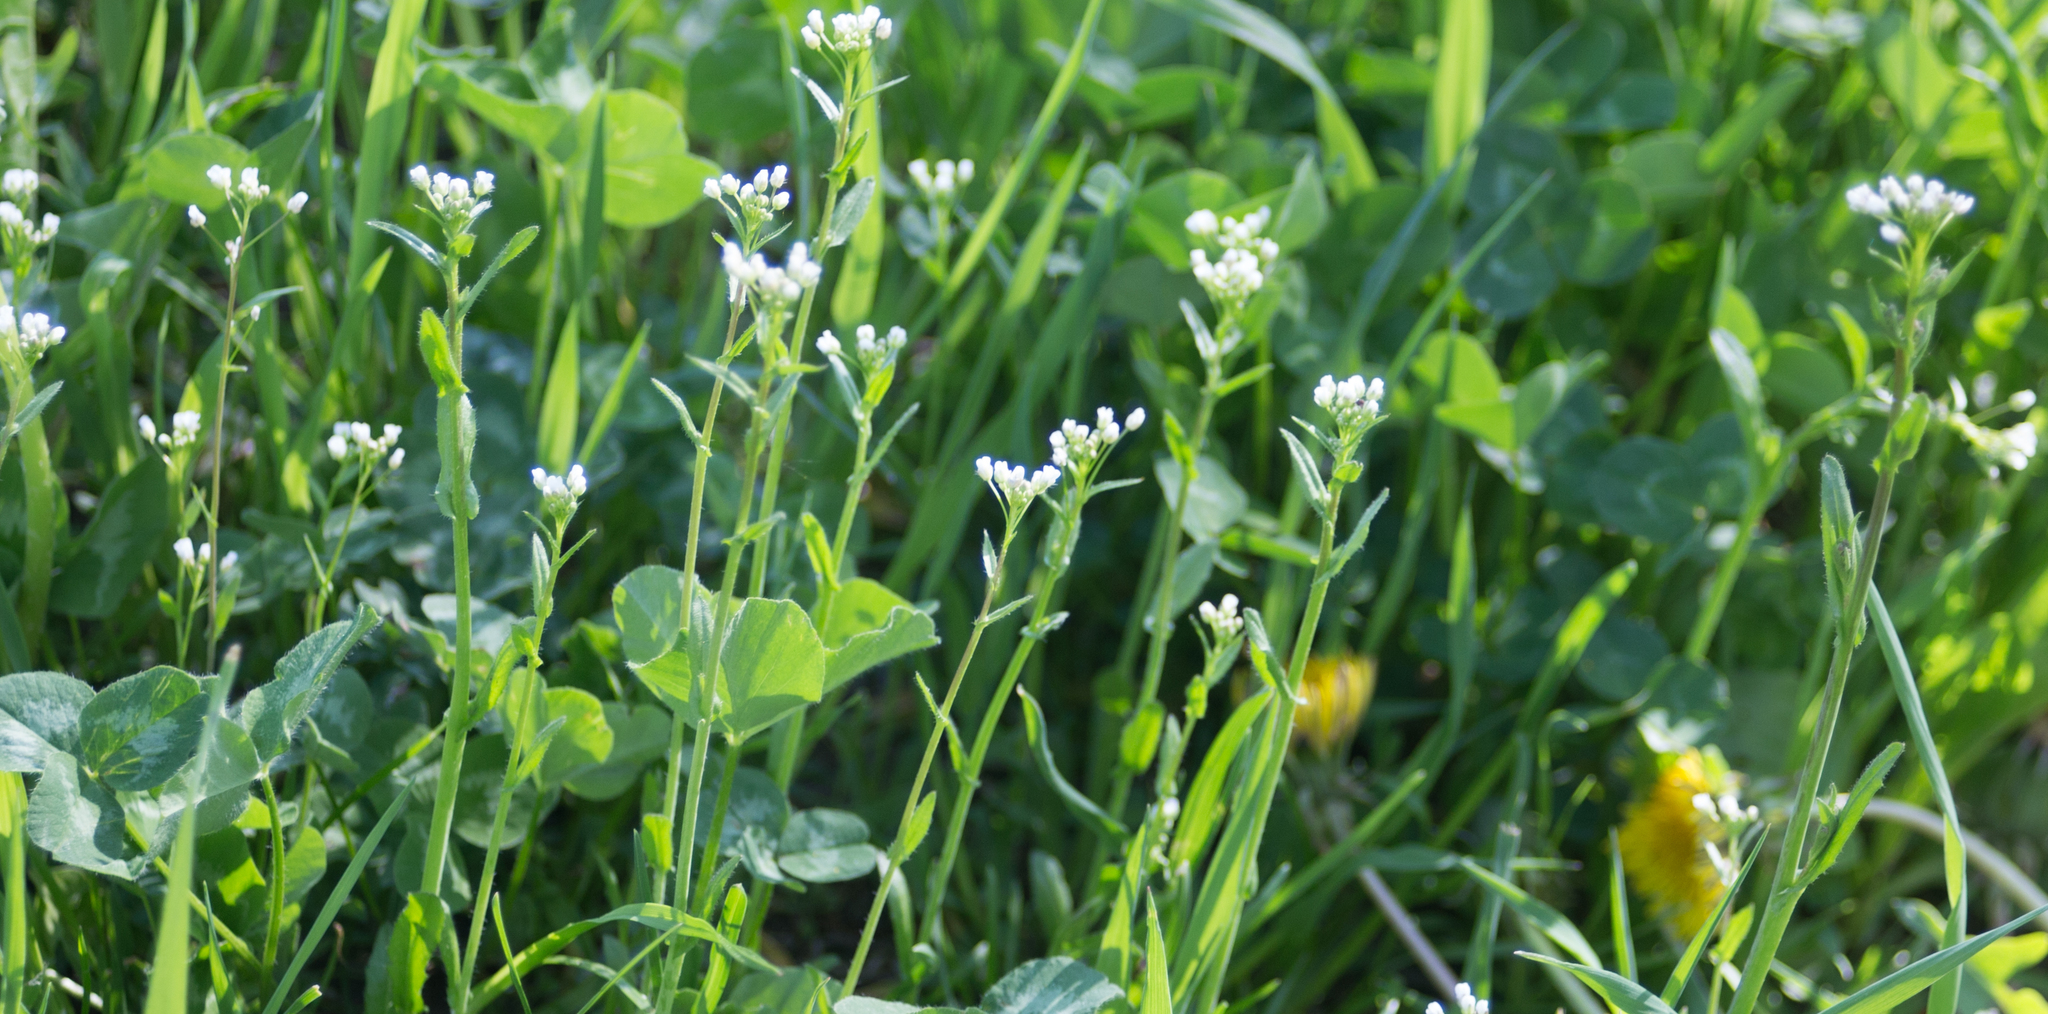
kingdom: Plantae
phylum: Tracheophyta
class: Magnoliopsida
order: Brassicales
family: Brassicaceae
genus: Capsella
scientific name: Capsella bursa-pastoris
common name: Shepherd's purse
